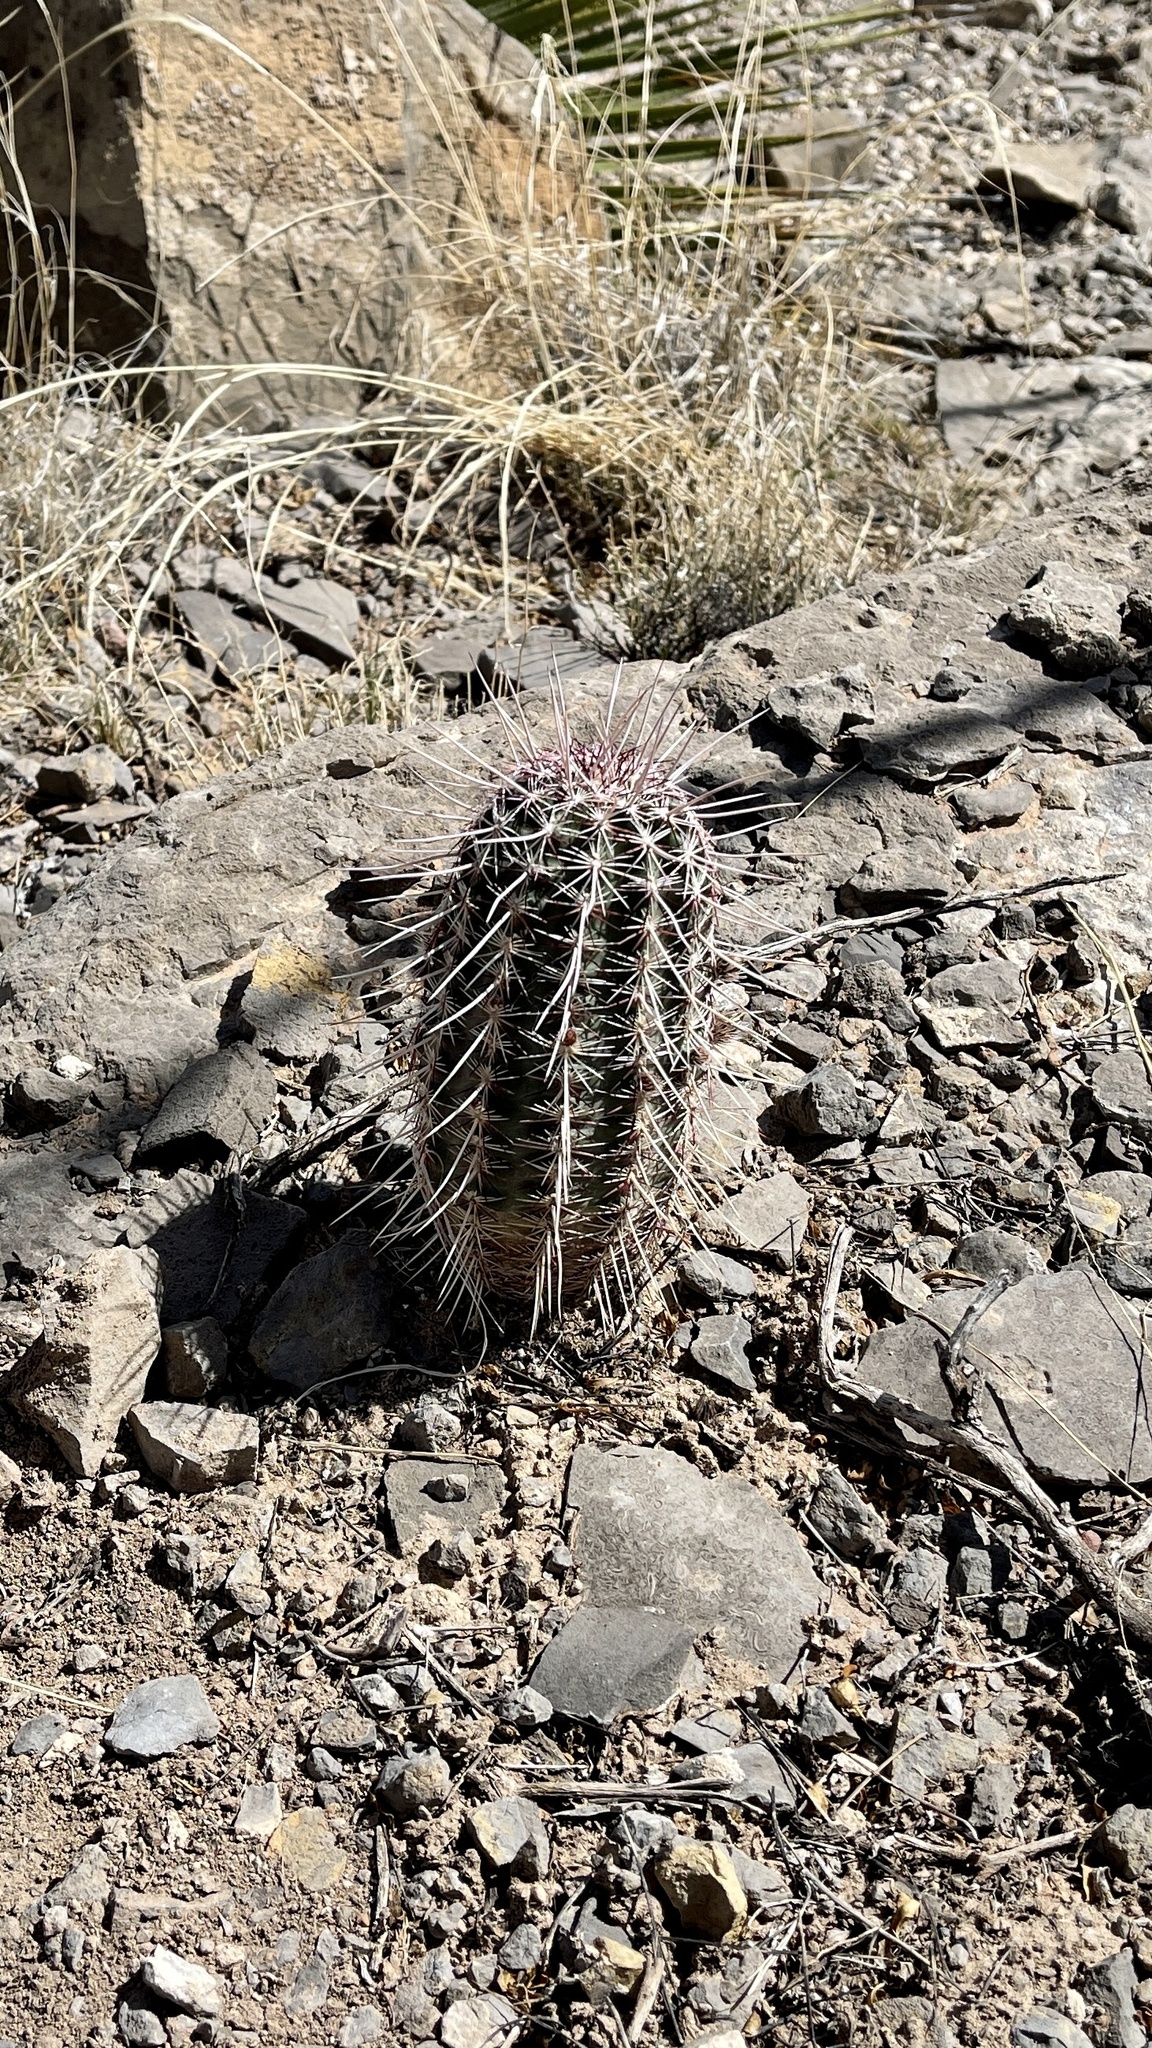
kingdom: Plantae
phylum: Tracheophyta
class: Magnoliopsida
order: Caryophyllales
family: Cactaceae
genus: Echinocereus
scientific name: Echinocereus viridiflorus
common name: Nylon hedgehog cactus
